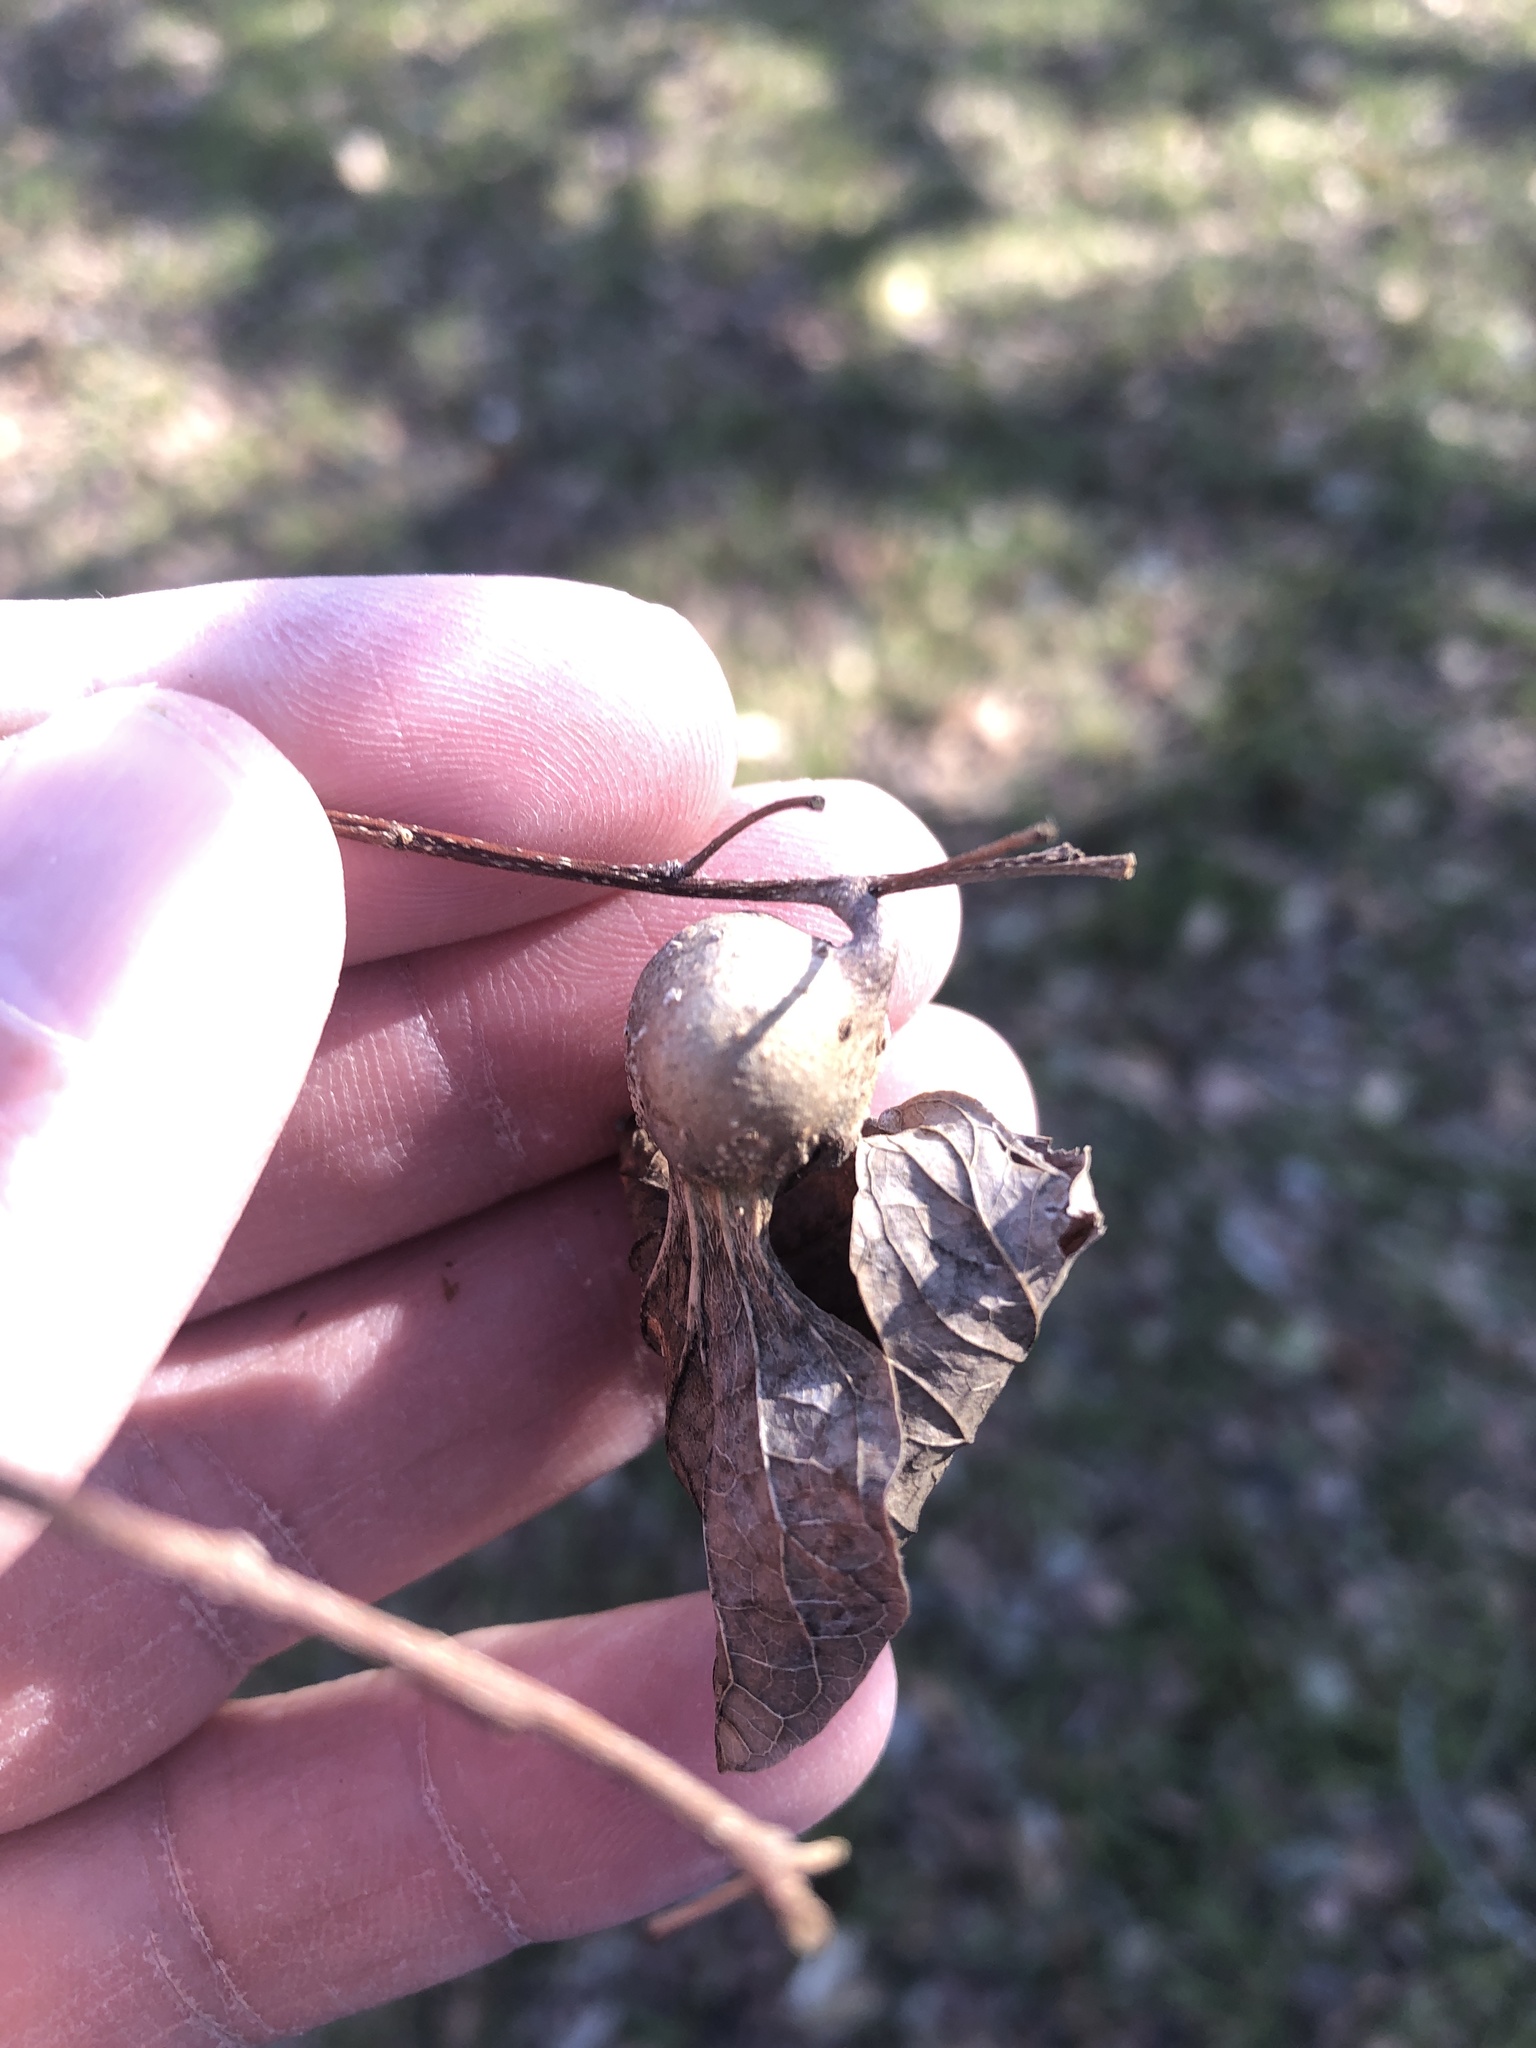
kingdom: Animalia
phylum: Arthropoda
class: Insecta
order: Hemiptera
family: Aphalaridae
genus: Pachypsylla
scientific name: Pachypsylla venusta
